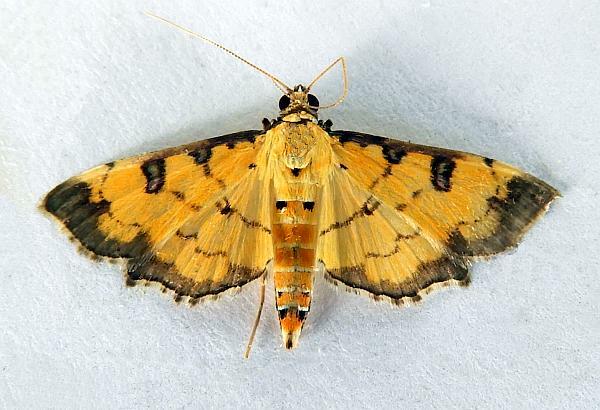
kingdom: Animalia
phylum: Arthropoda
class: Insecta
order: Lepidoptera
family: Crambidae
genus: Ategumia
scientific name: Ategumia ebulealis
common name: Moth
